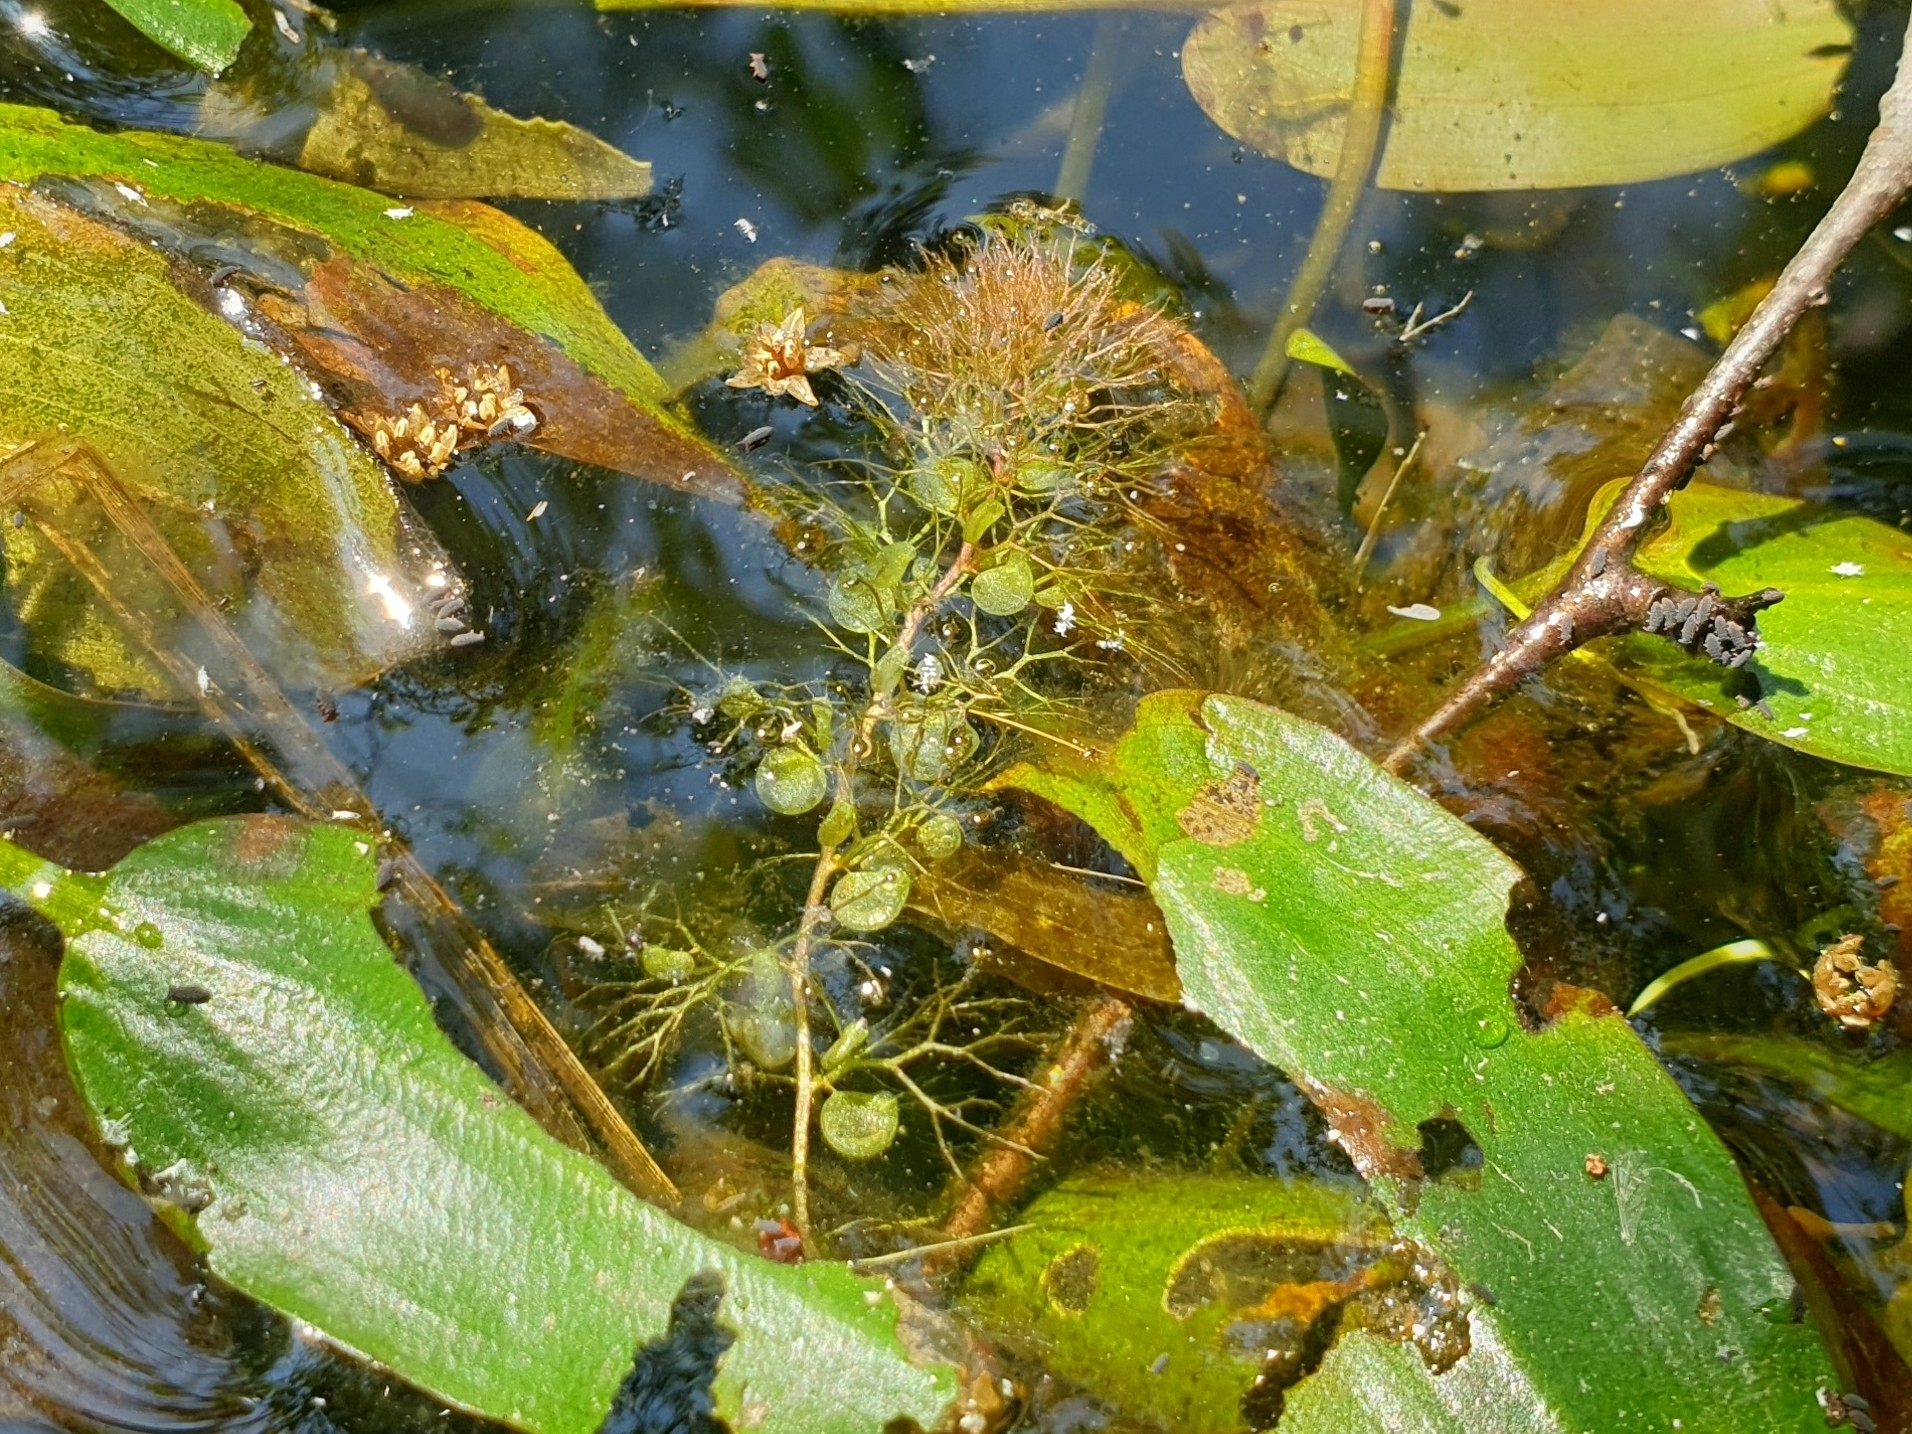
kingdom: Plantae
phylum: Tracheophyta
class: Magnoliopsida
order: Lamiales
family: Lentibulariaceae
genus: Utricularia
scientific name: Utricularia australis
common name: Bladderwort
